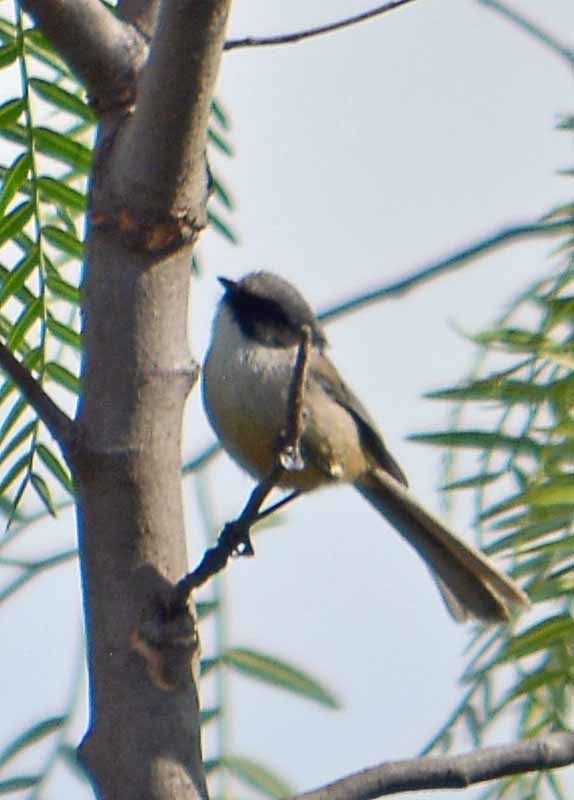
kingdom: Animalia
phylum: Chordata
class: Aves
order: Passeriformes
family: Aegithalidae
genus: Psaltriparus
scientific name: Psaltriparus minimus
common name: American bushtit
